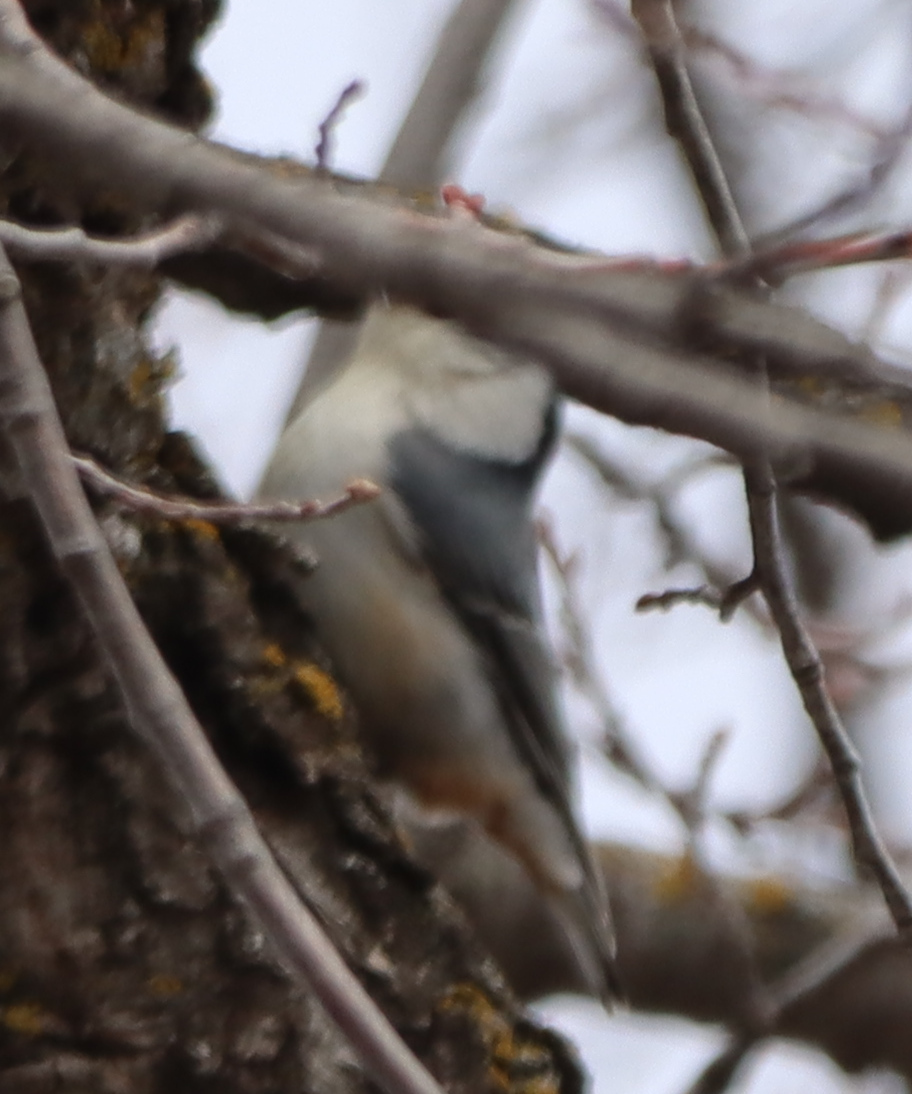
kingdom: Animalia
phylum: Chordata
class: Aves
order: Passeriformes
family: Sittidae
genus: Sitta
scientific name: Sitta carolinensis
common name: White-breasted nuthatch
